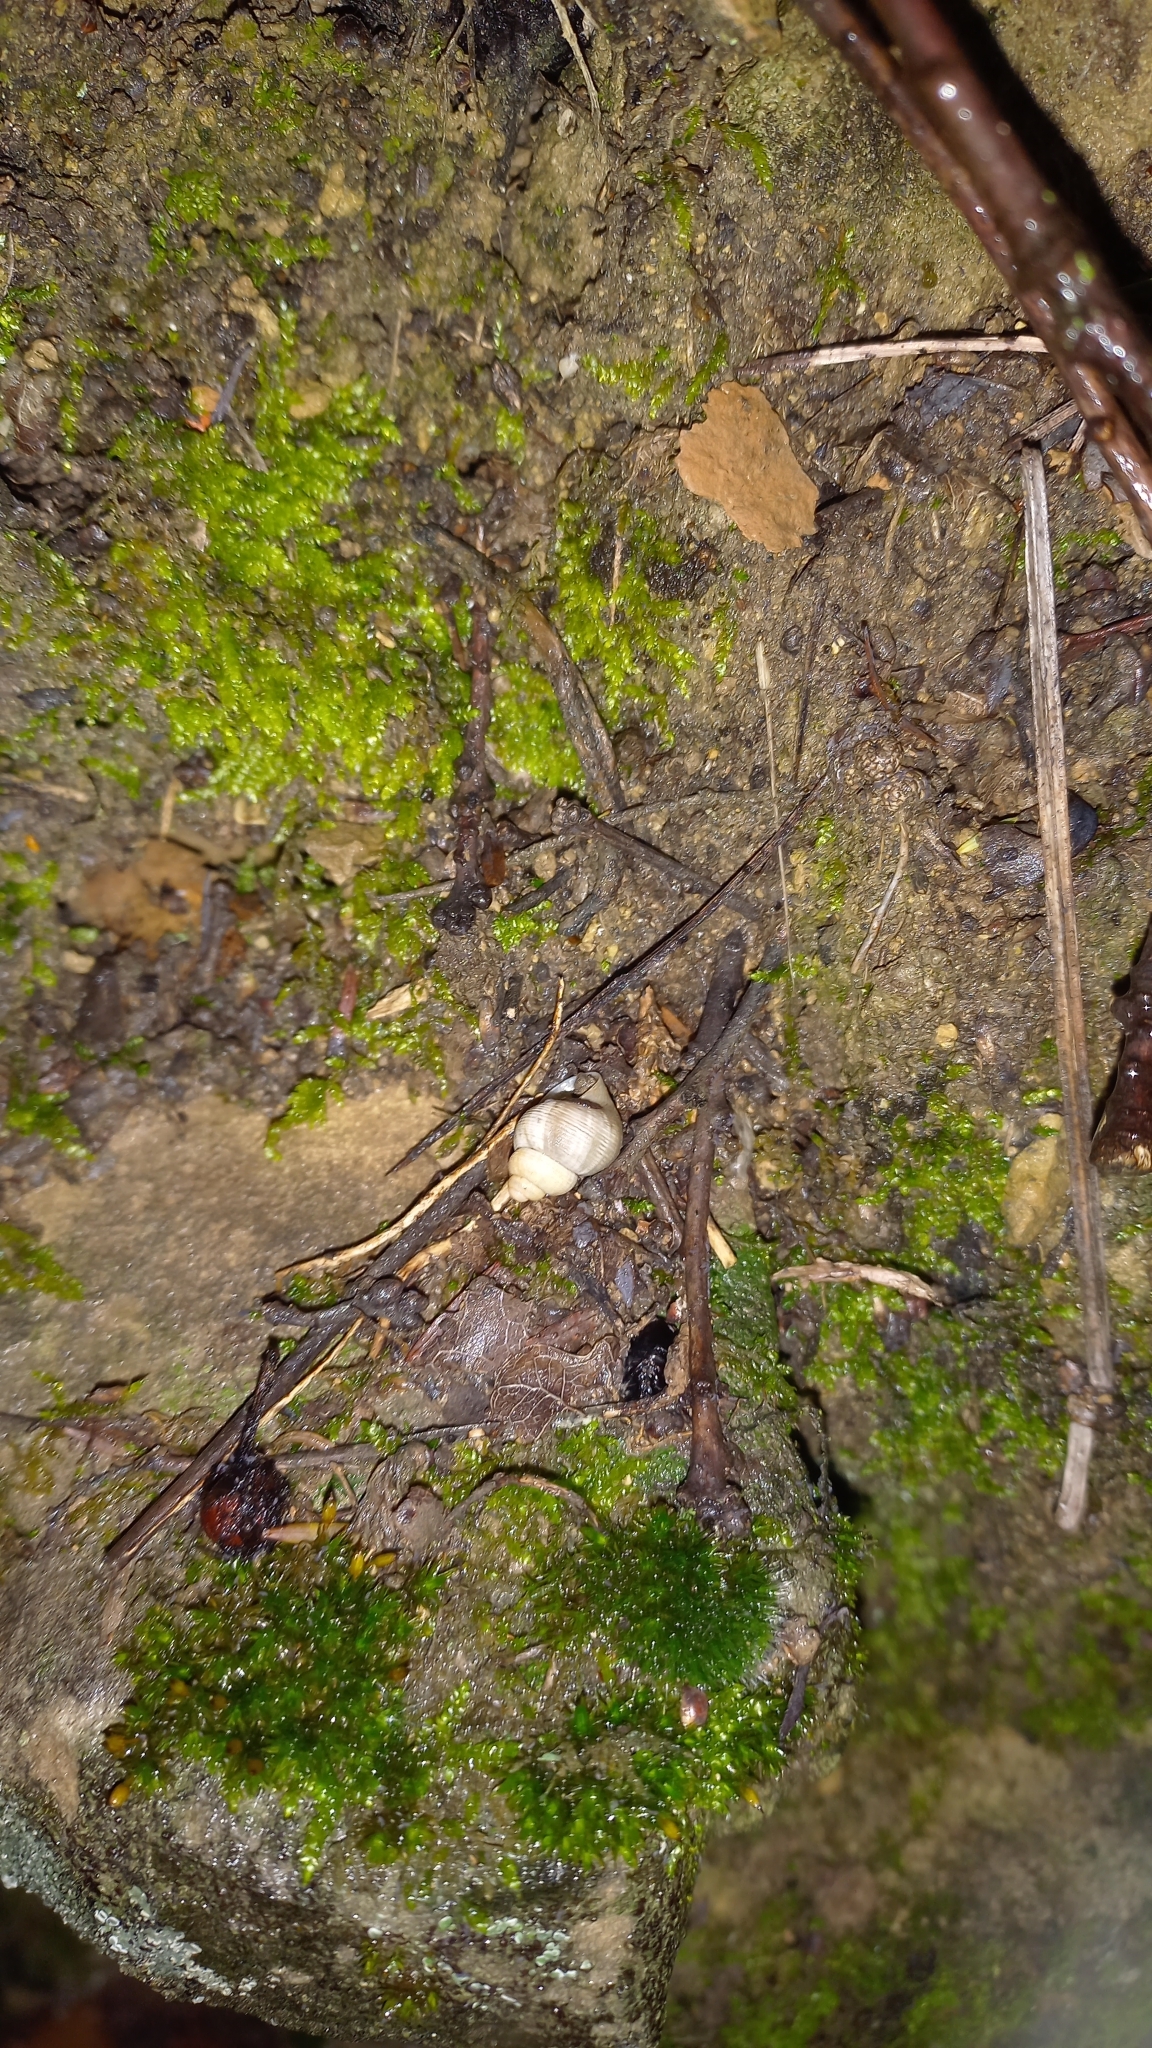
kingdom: Animalia
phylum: Mollusca
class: Gastropoda
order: Littorinimorpha
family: Pomatiidae
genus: Pomatias
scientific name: Pomatias elegans
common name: Red-mouthed snail
